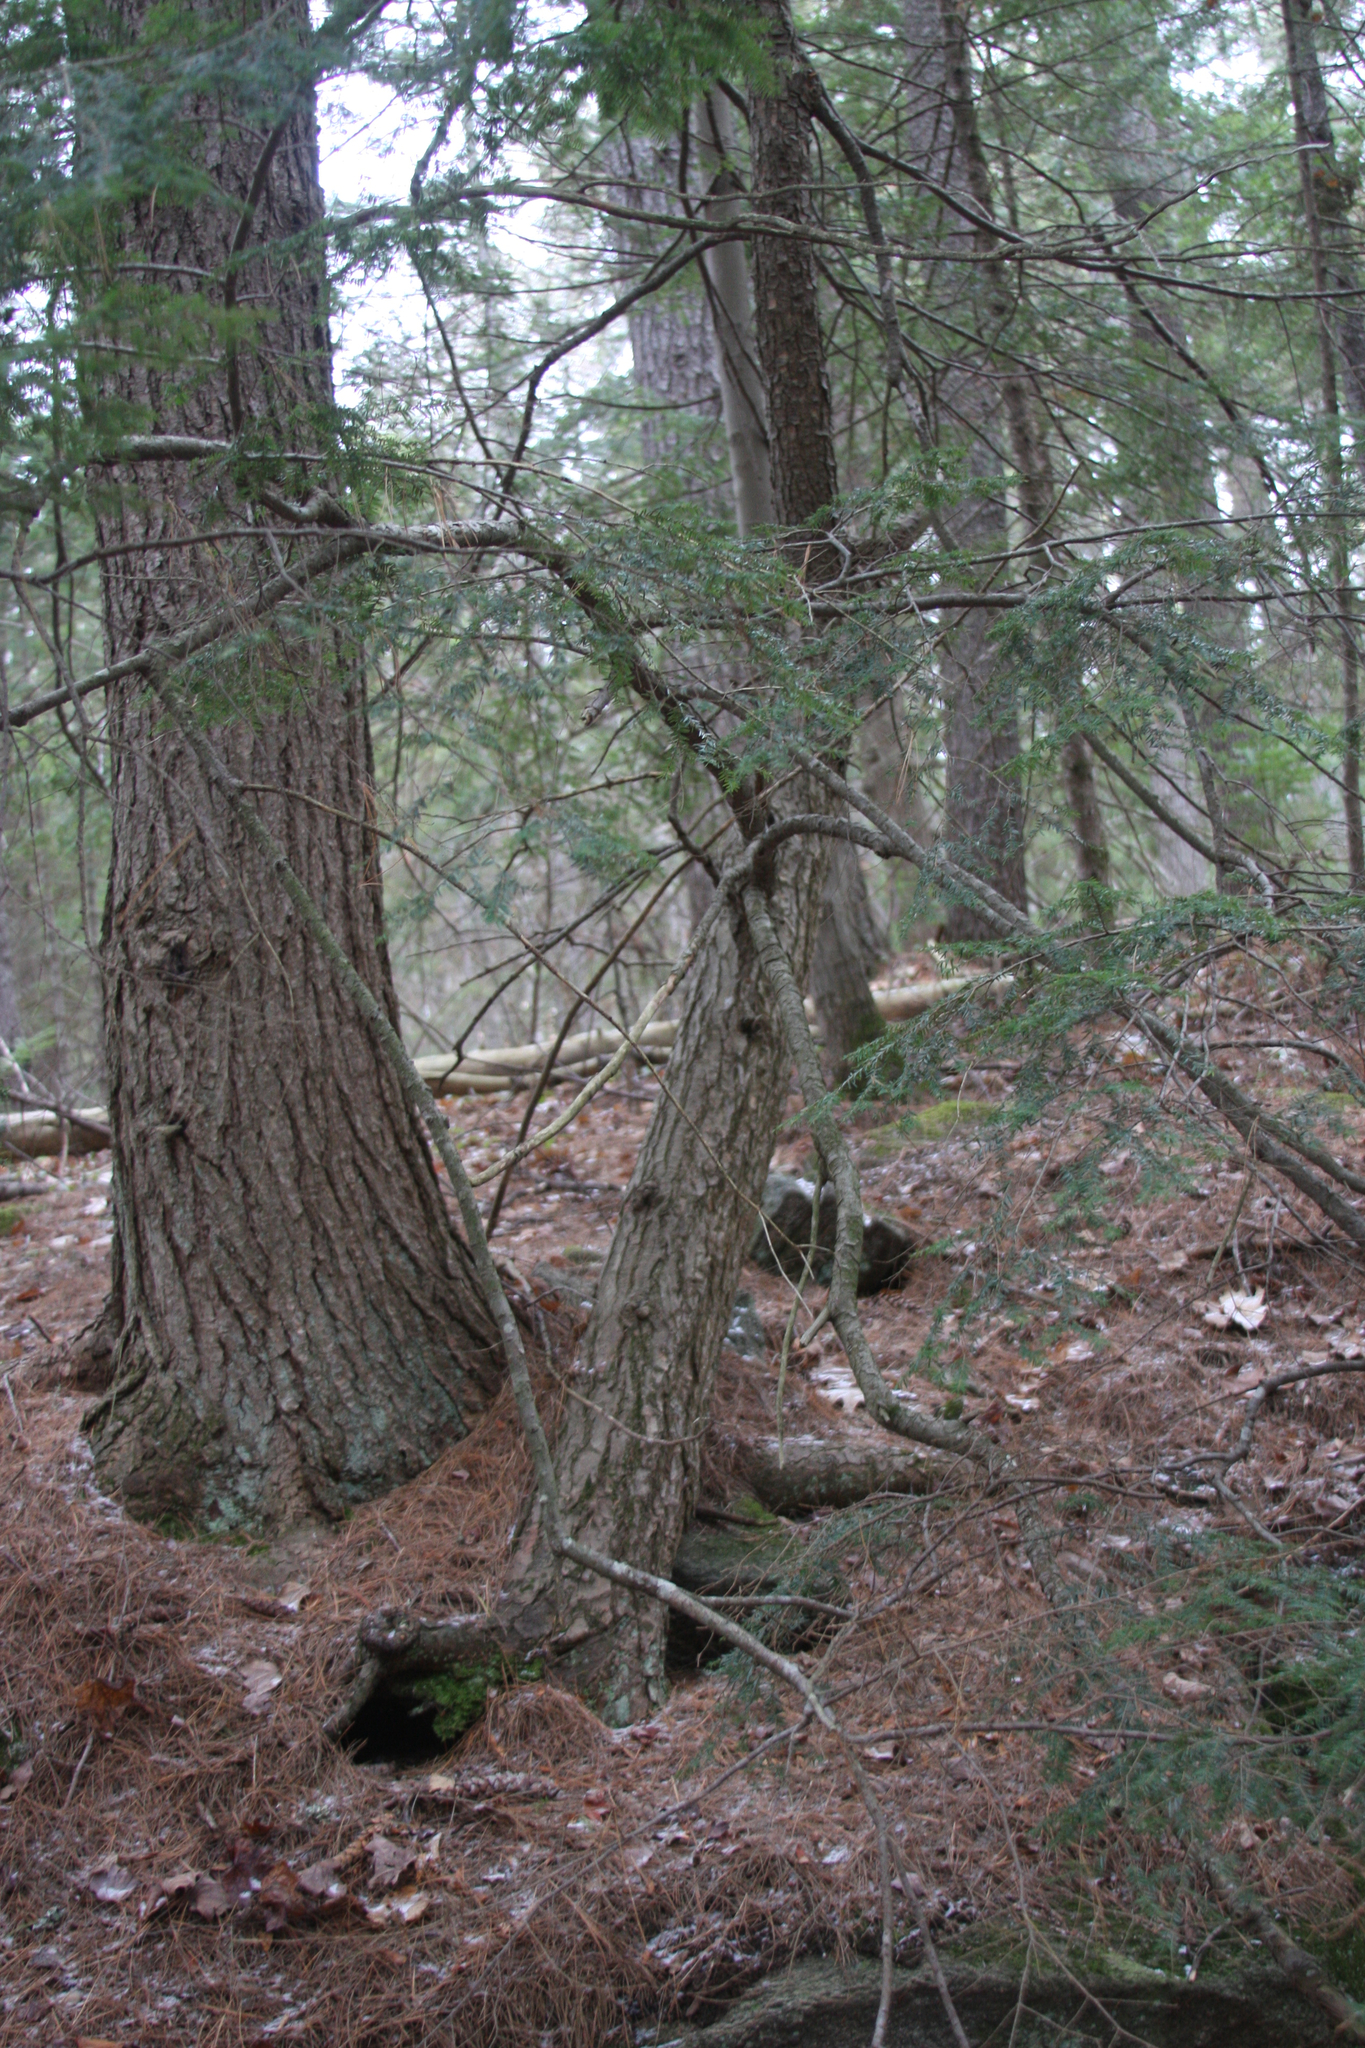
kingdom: Plantae
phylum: Tracheophyta
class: Pinopsida
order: Pinales
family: Pinaceae
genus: Tsuga
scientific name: Tsuga canadensis
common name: Eastern hemlock
